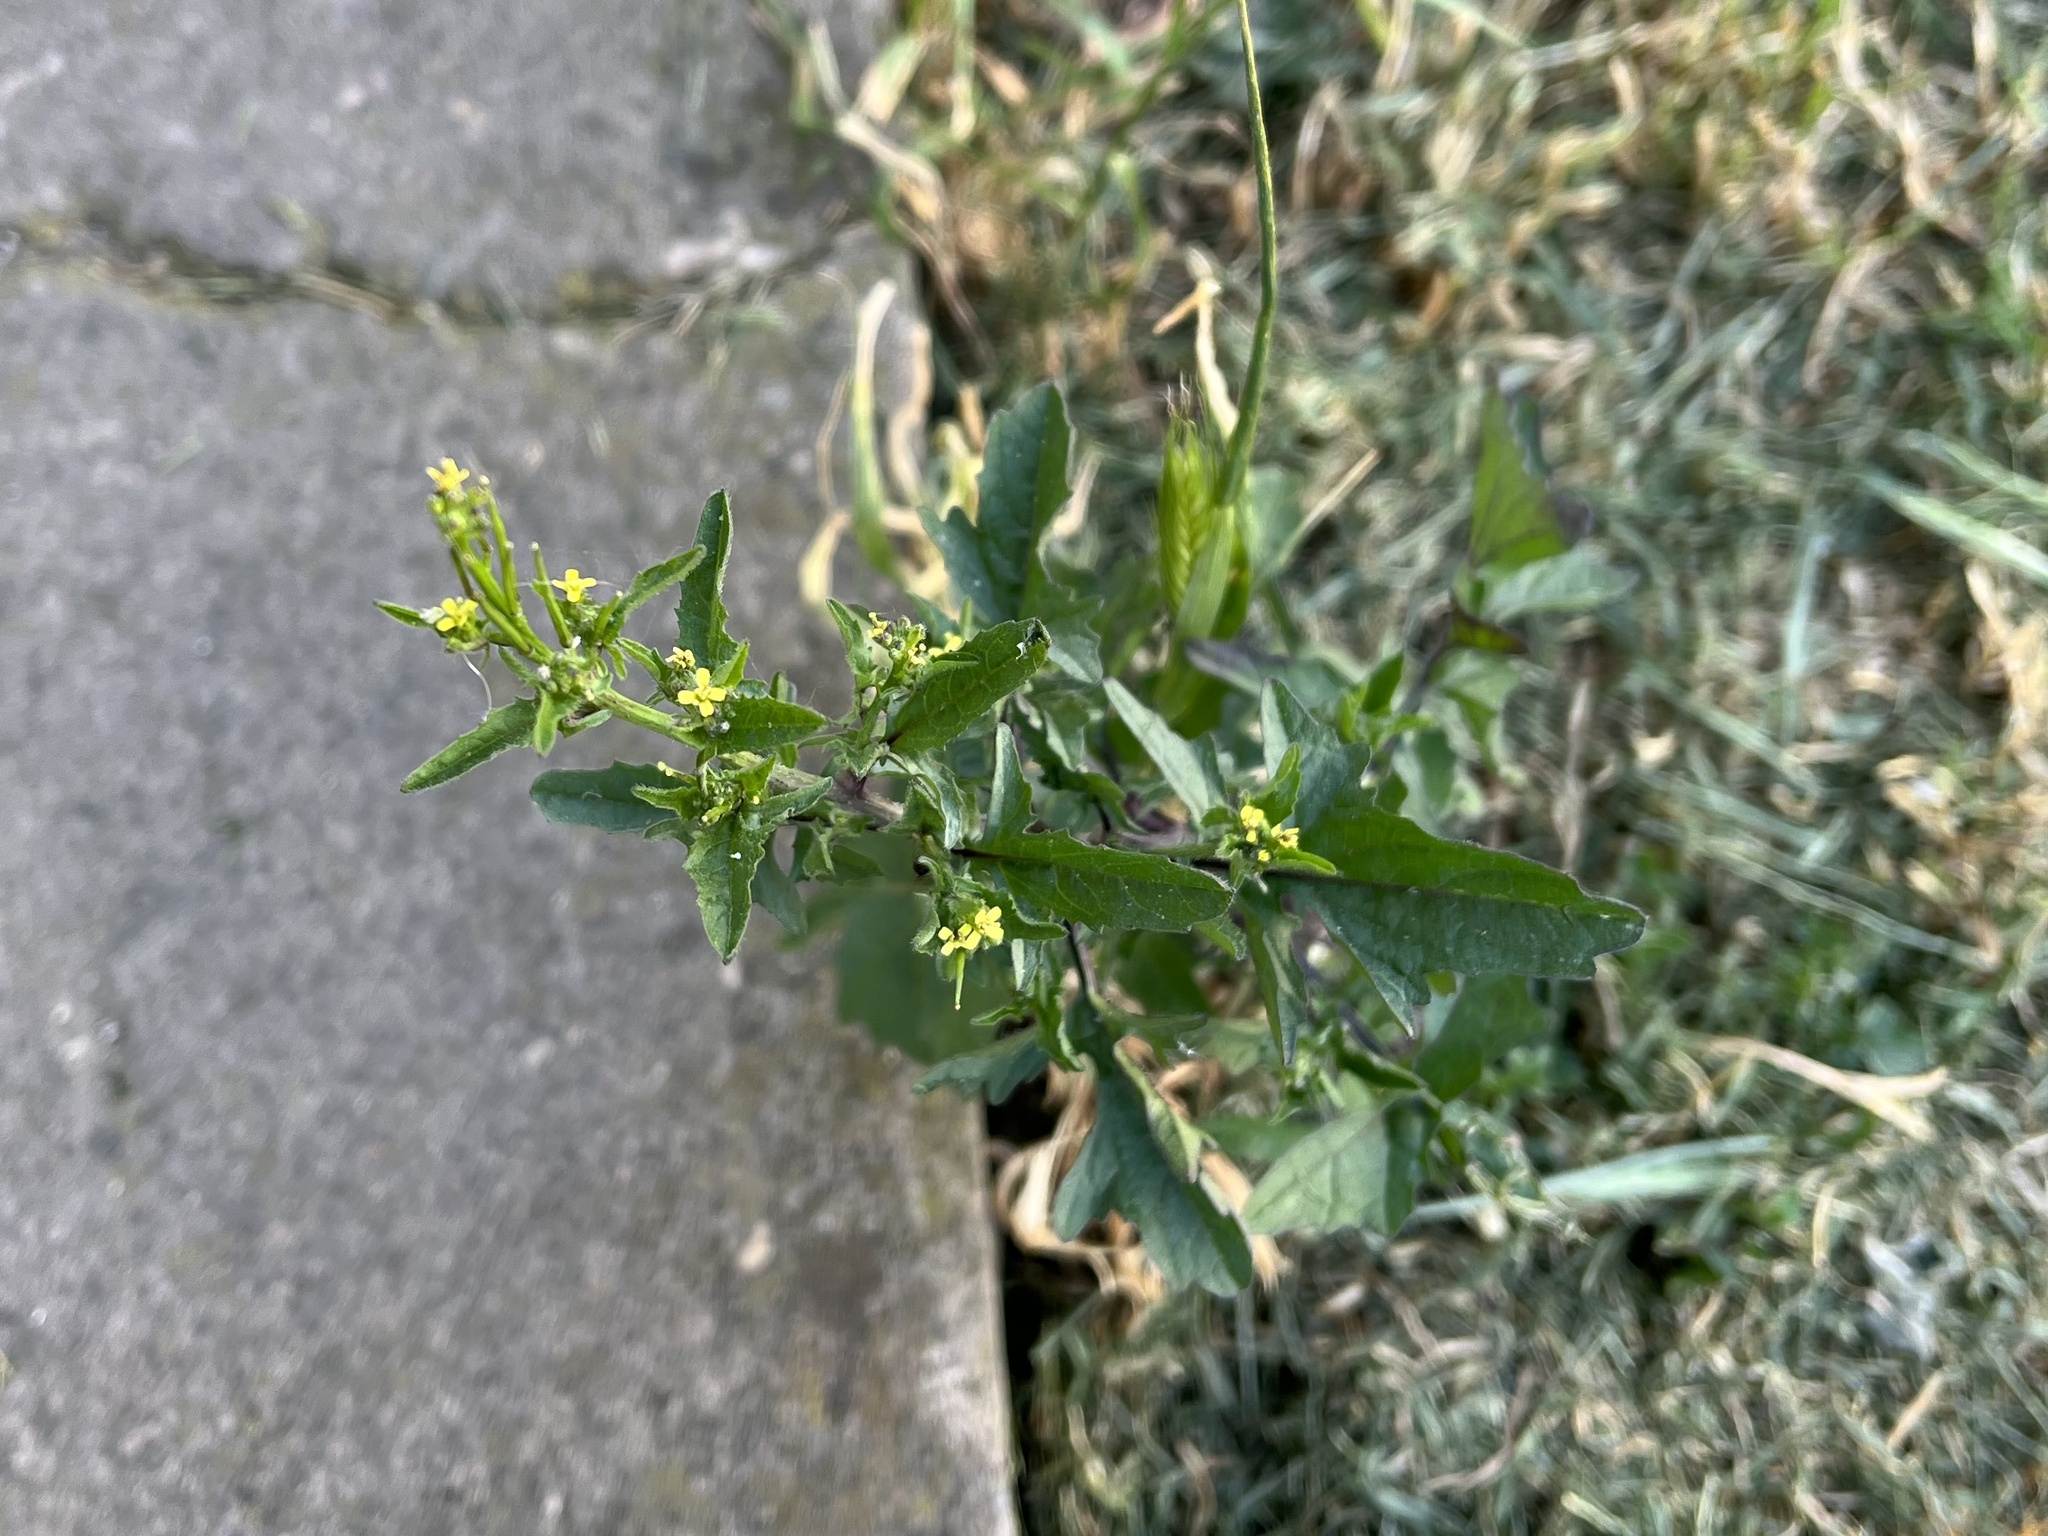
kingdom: Plantae
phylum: Tracheophyta
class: Magnoliopsida
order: Brassicales
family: Brassicaceae
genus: Sisymbrium
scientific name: Sisymbrium officinale
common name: Hedge mustard
